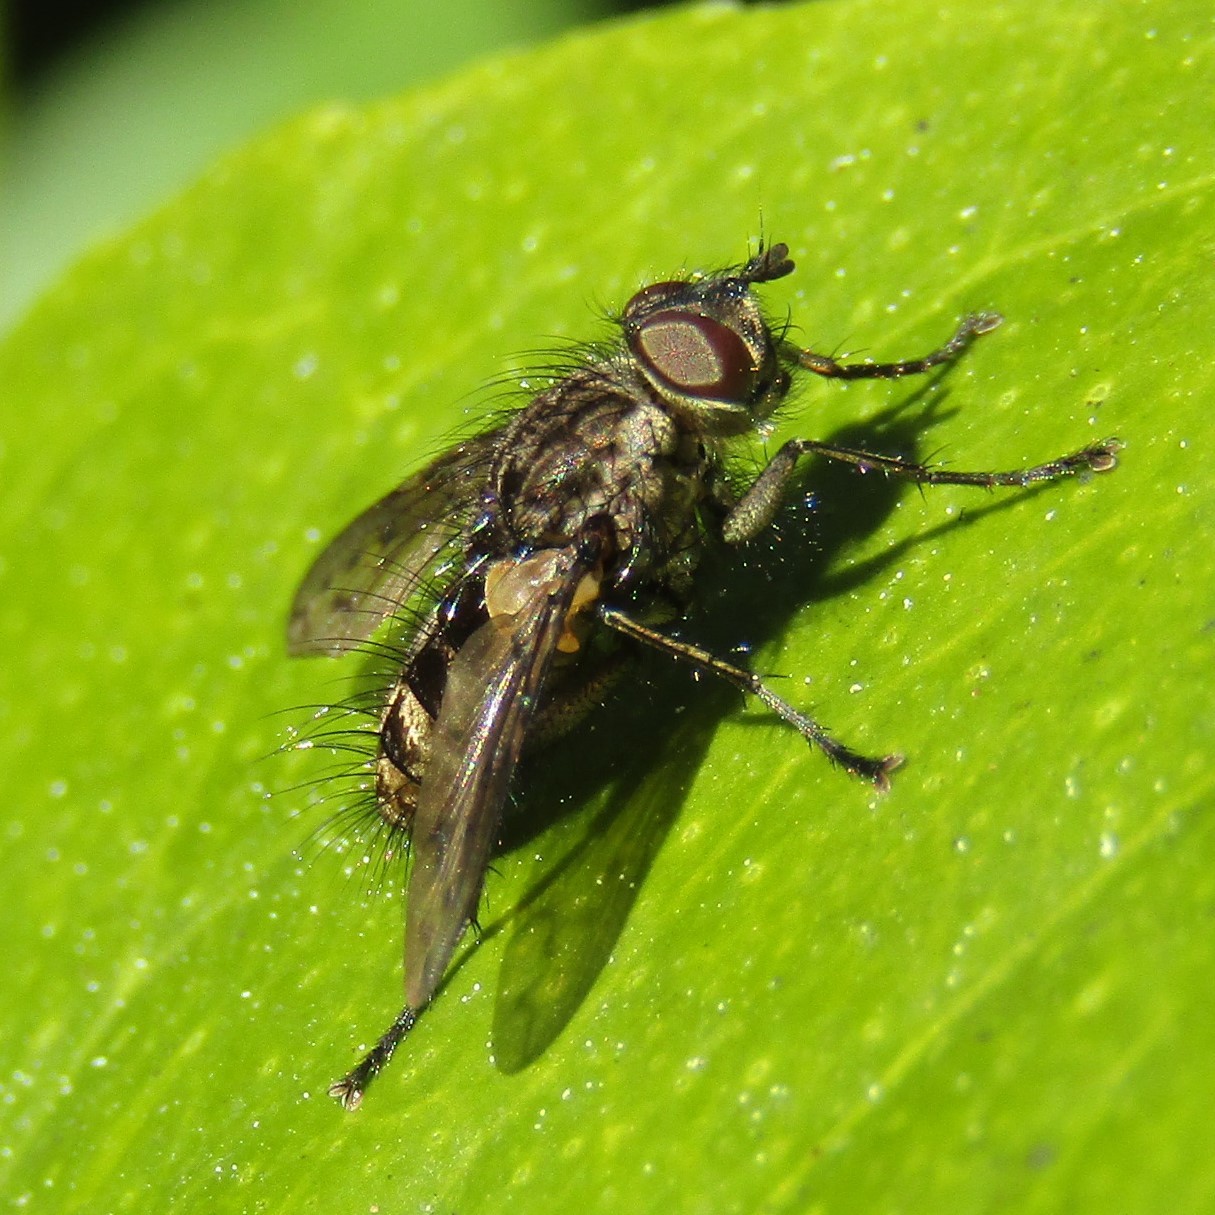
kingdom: Animalia
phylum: Arthropoda
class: Insecta
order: Diptera
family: Tachinidae
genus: Mallochomacquartia
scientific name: Mallochomacquartia vexata
